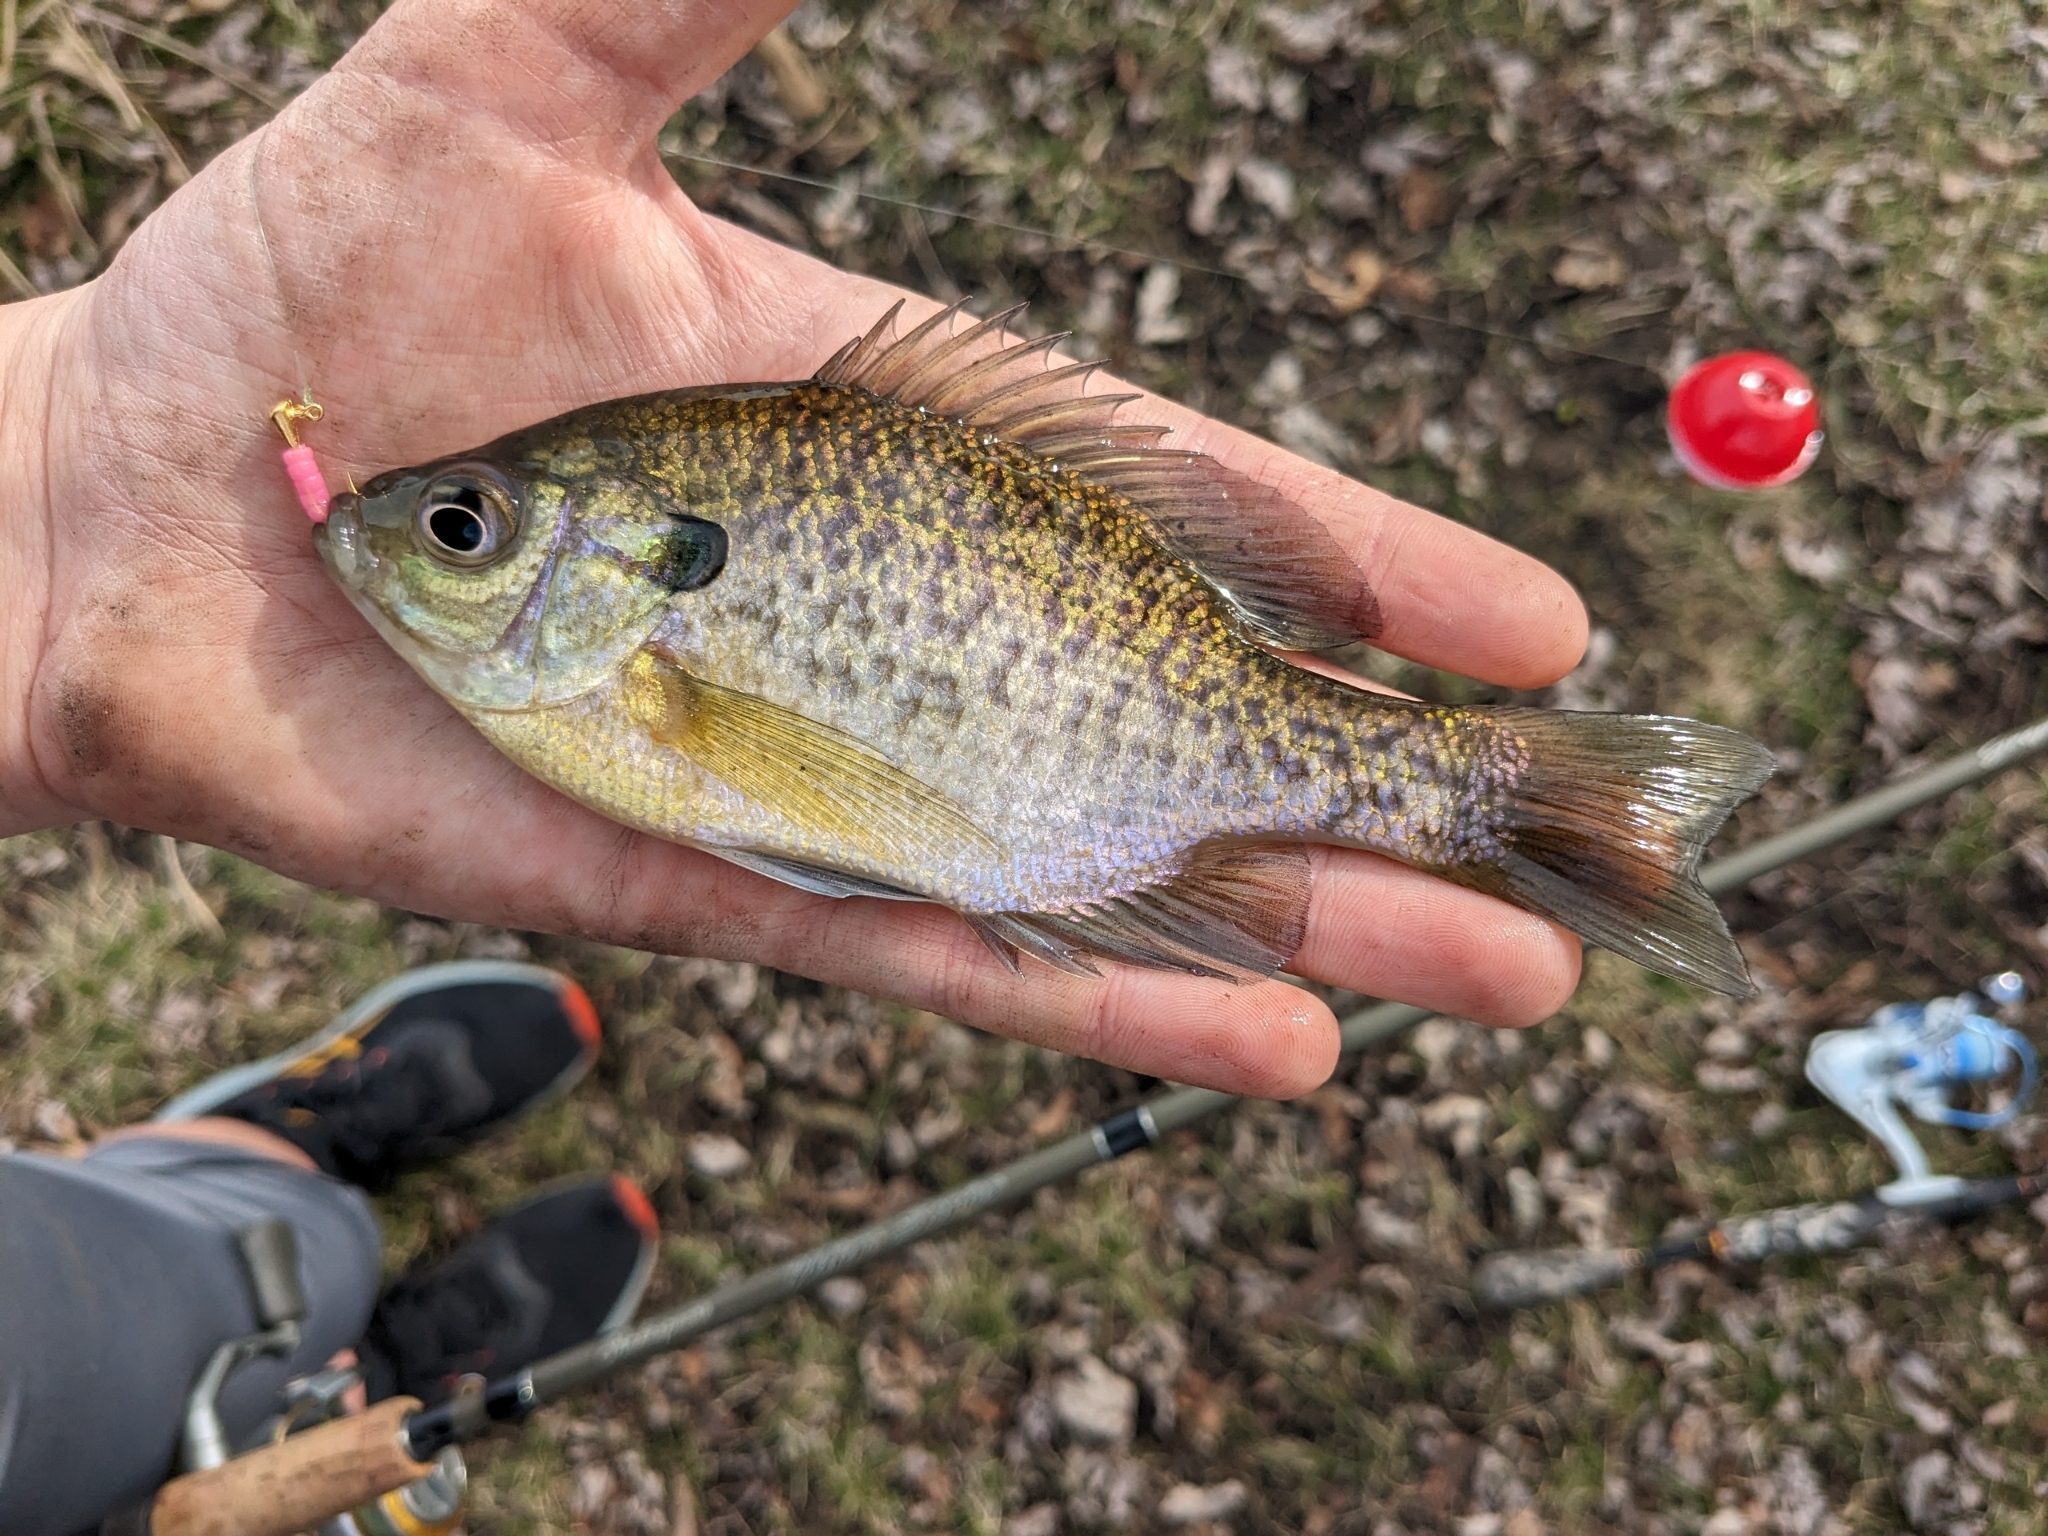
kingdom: Animalia
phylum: Chordata
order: Perciformes
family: Centrarchidae
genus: Lepomis
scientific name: Lepomis macrochirus
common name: Bluegill
